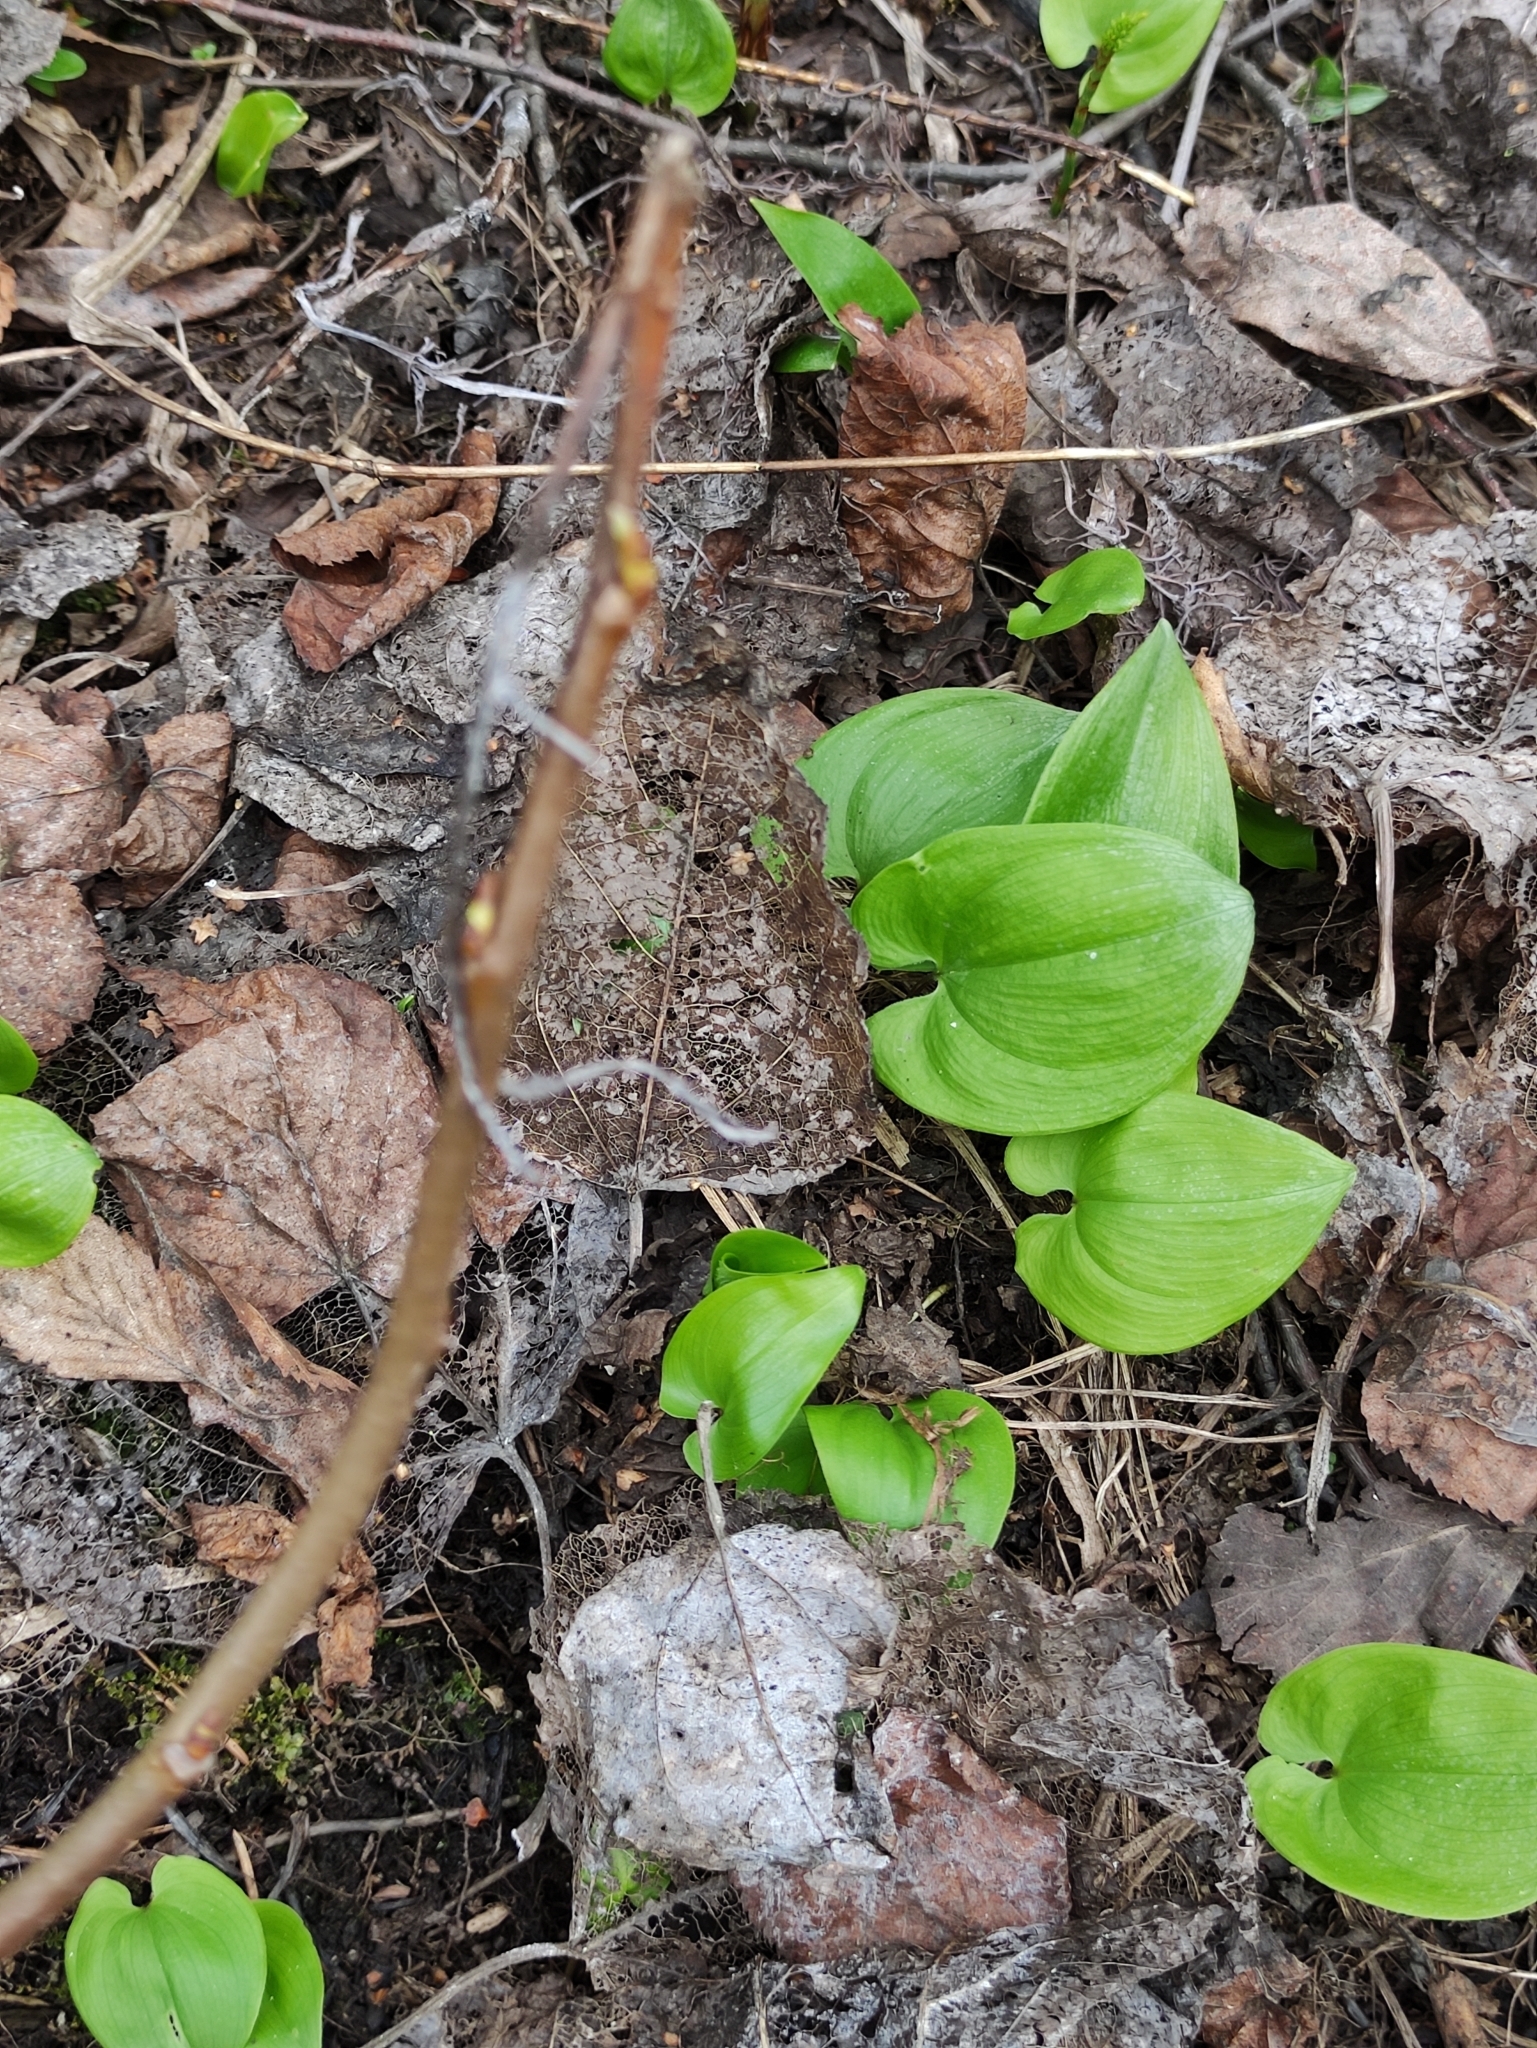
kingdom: Plantae
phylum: Tracheophyta
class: Liliopsida
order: Asparagales
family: Asparagaceae
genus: Maianthemum
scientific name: Maianthemum bifolium
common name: May lily
